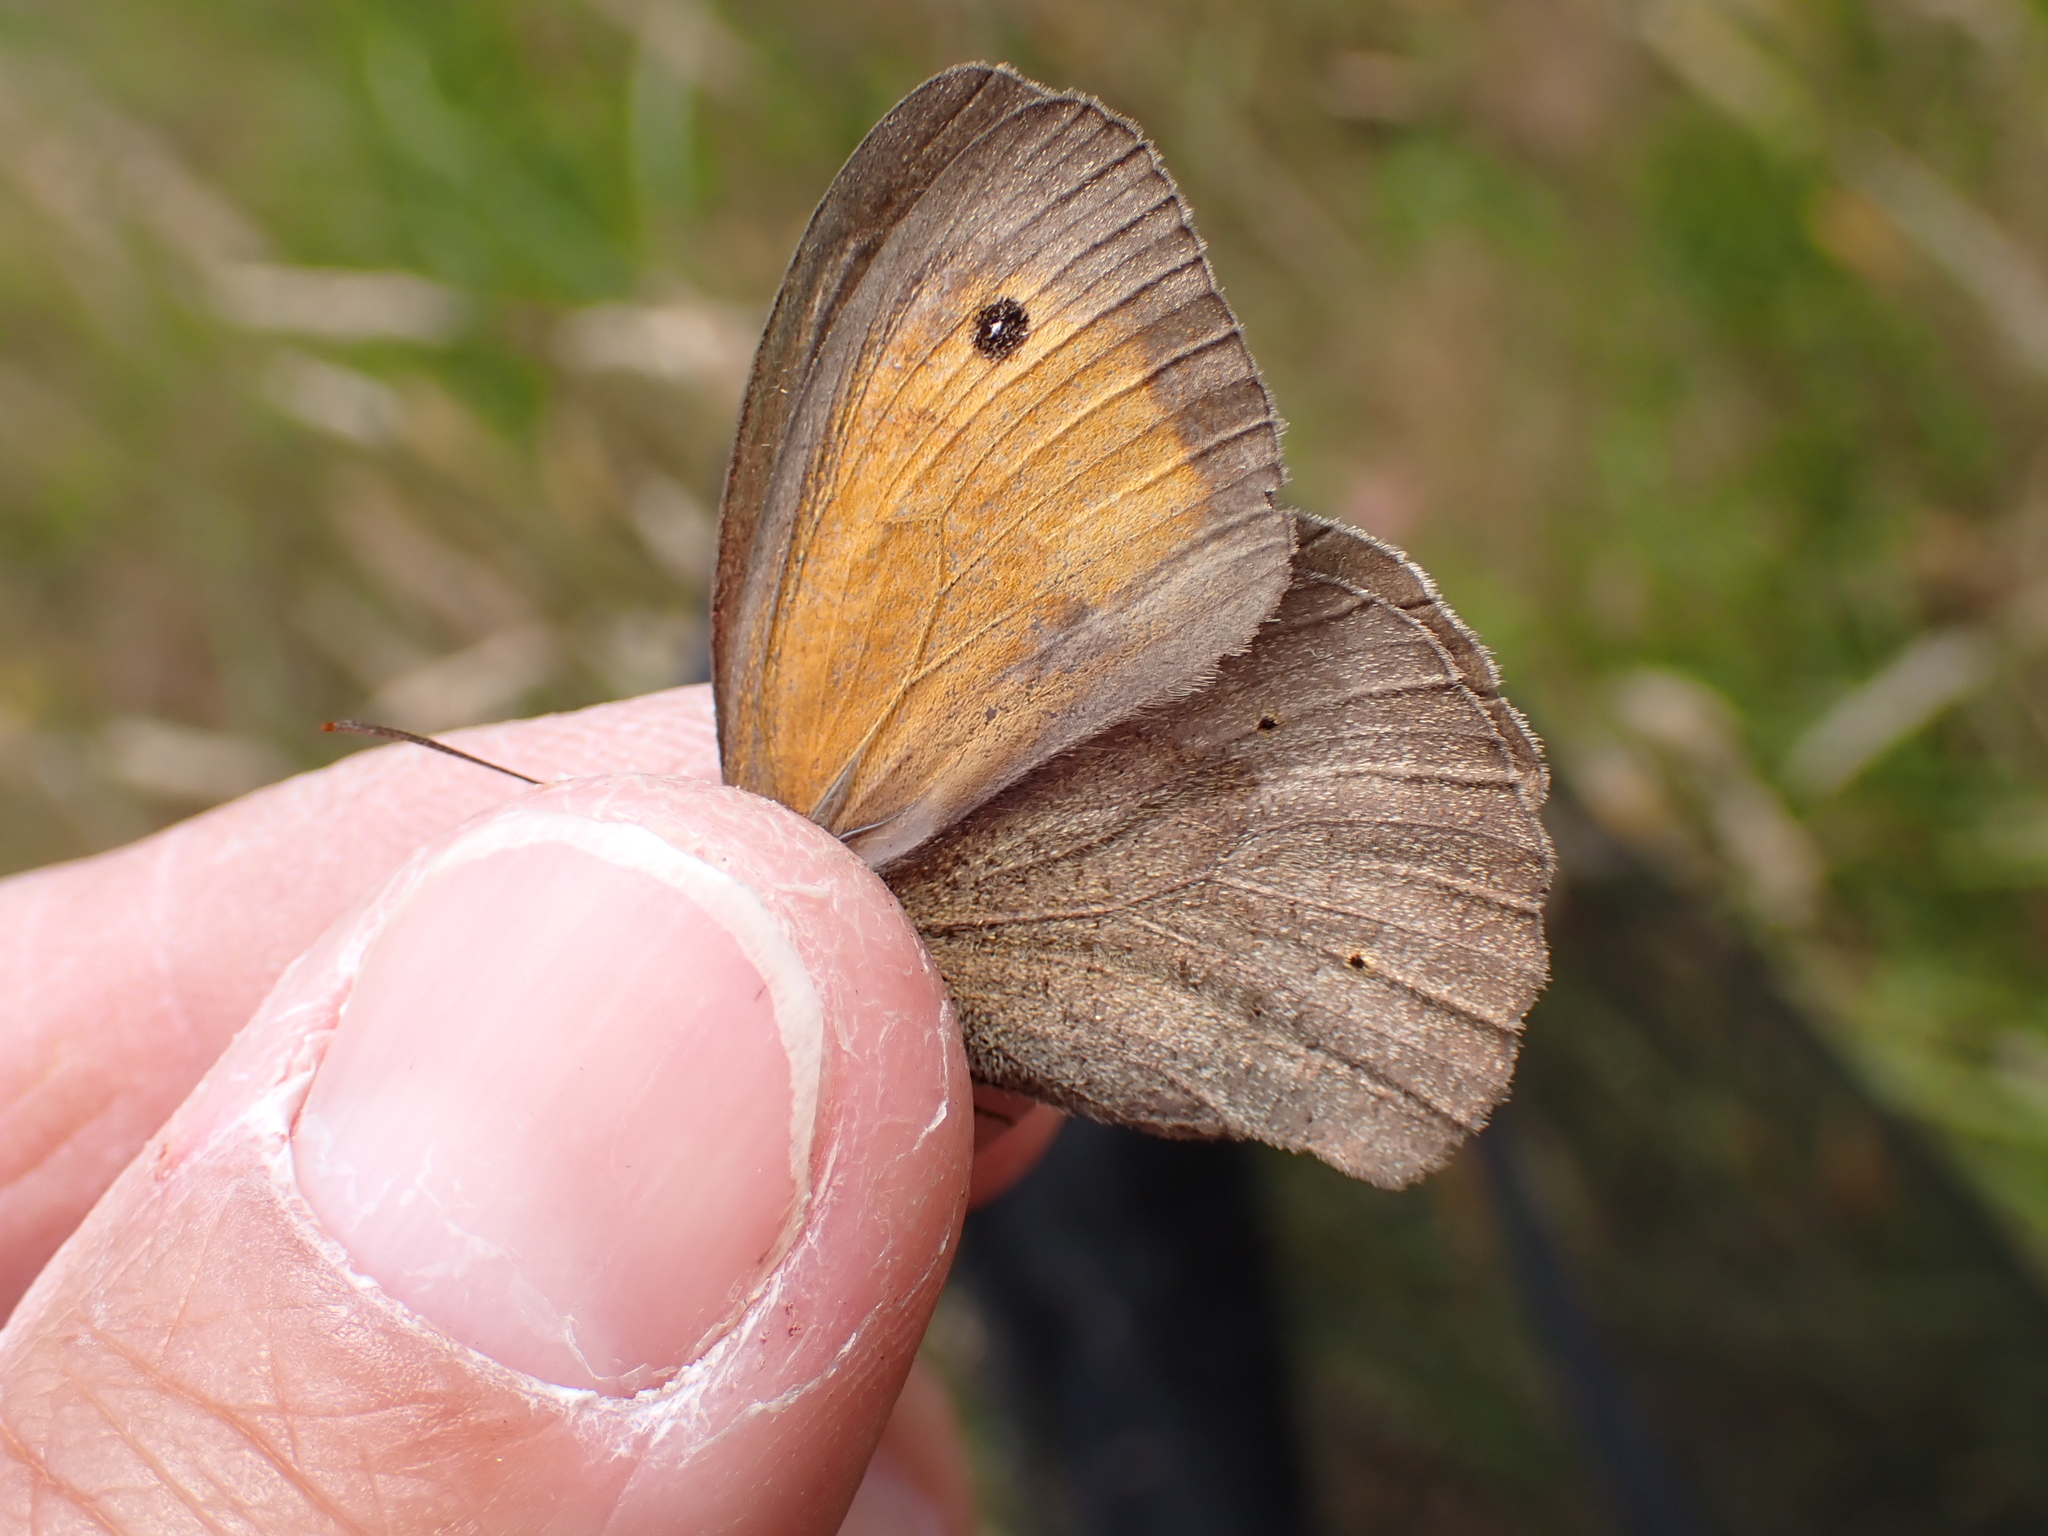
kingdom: Animalia
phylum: Arthropoda
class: Insecta
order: Lepidoptera
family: Nymphalidae
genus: Maniola
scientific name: Maniola jurtina
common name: Meadow brown
